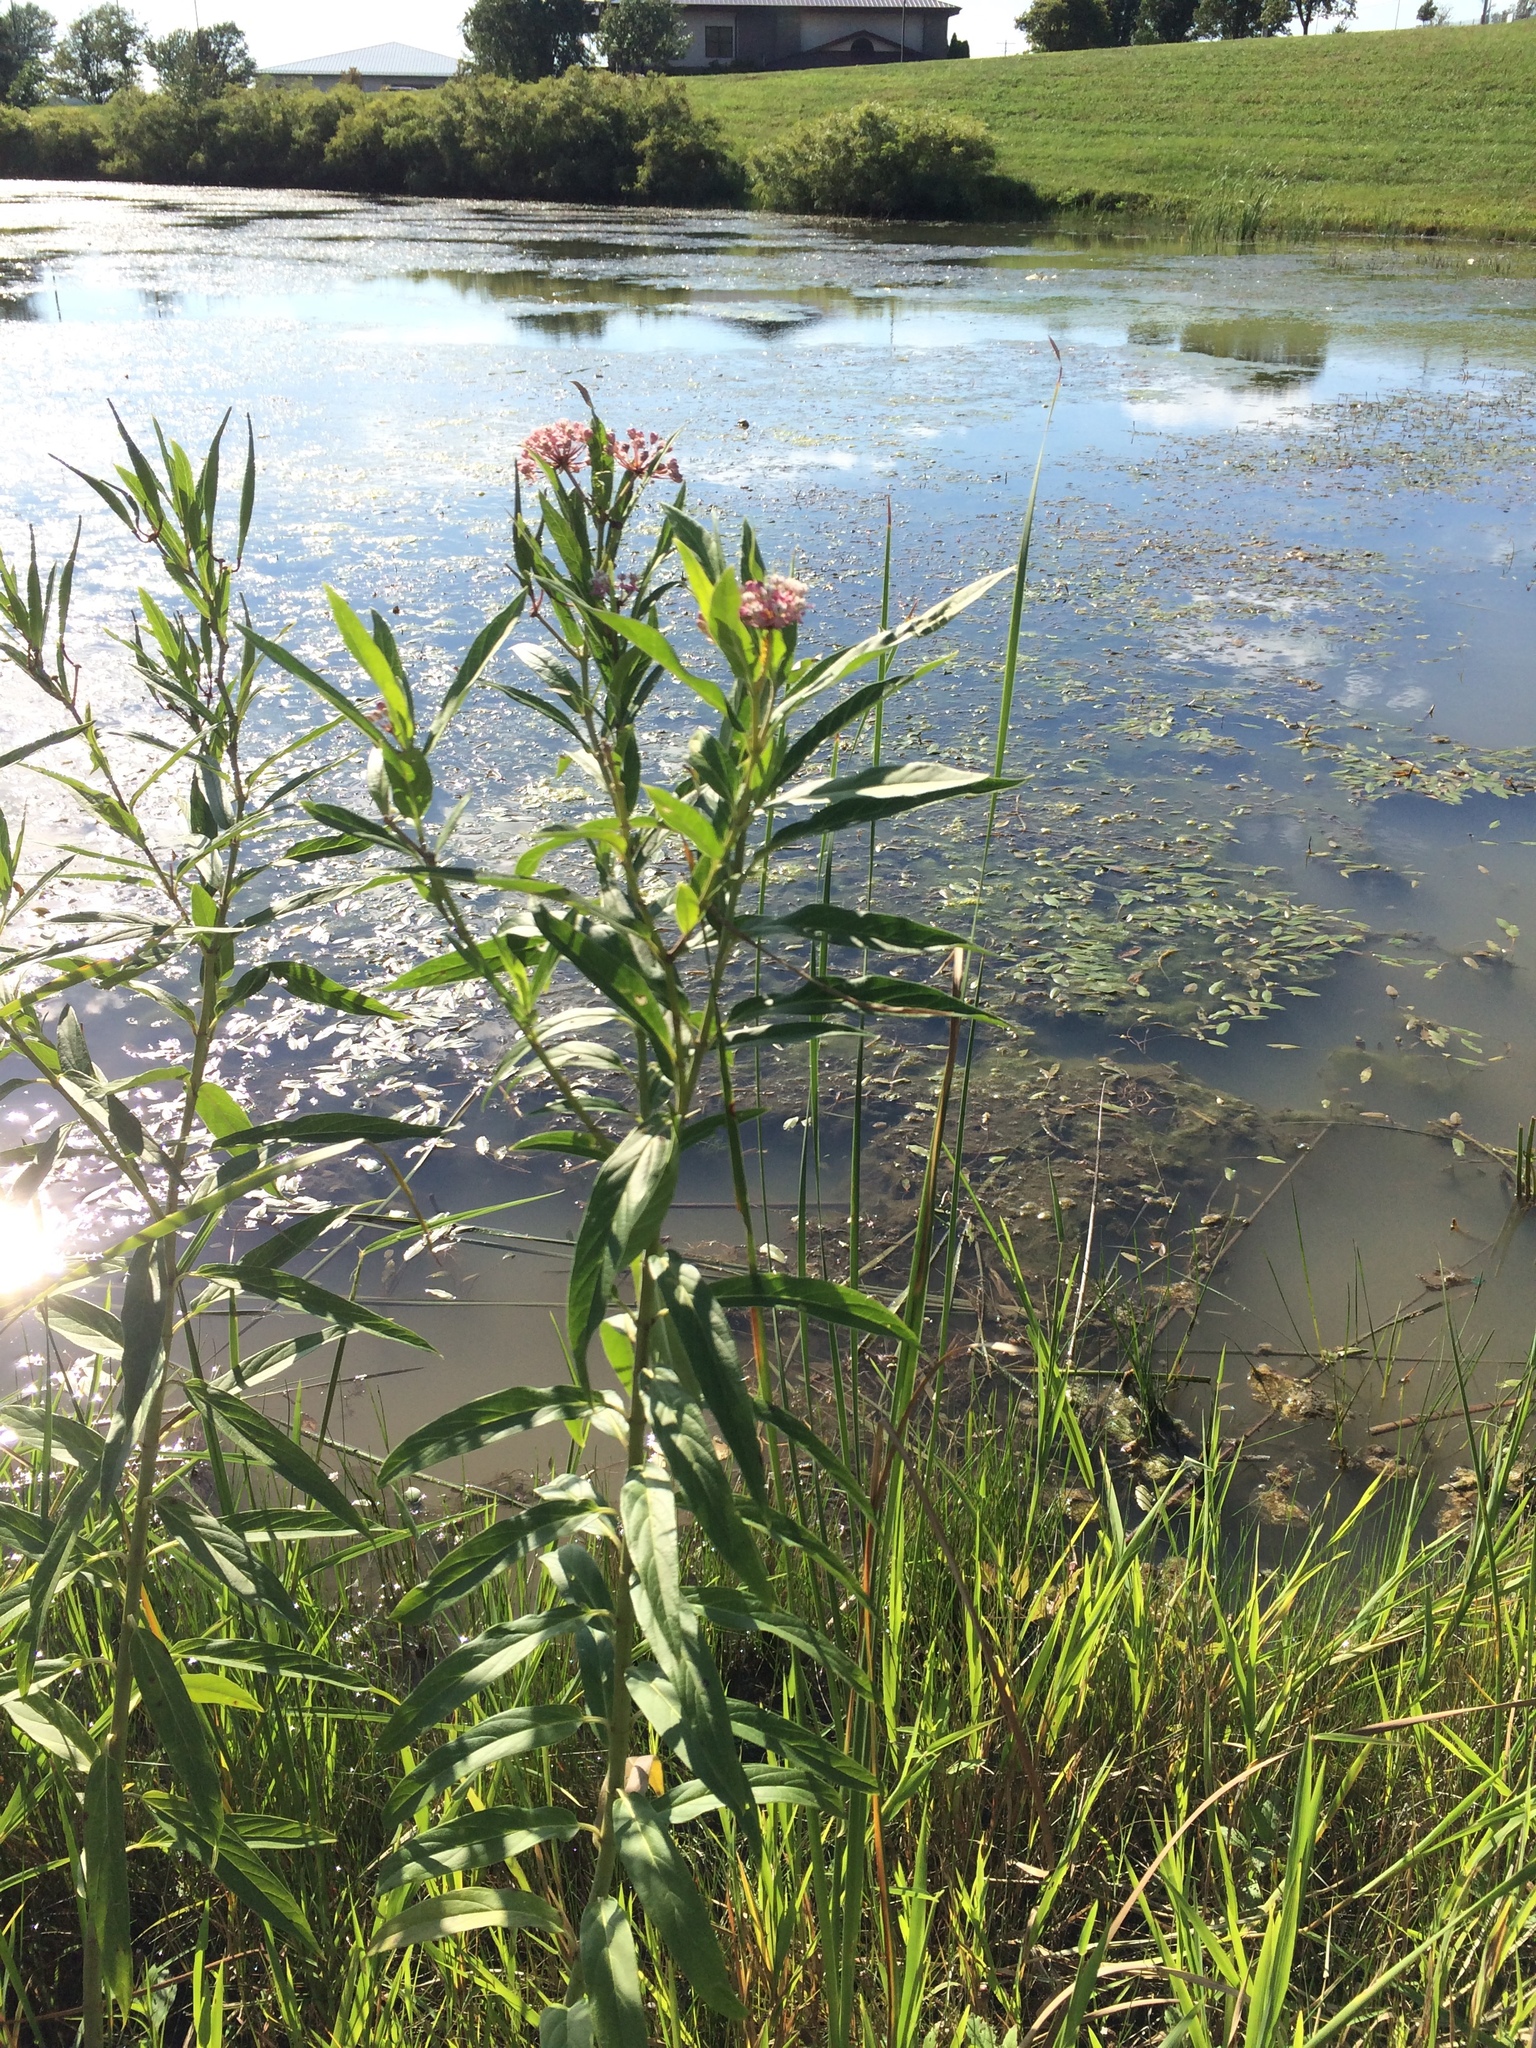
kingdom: Plantae
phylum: Tracheophyta
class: Magnoliopsida
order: Gentianales
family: Apocynaceae
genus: Asclepias
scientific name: Asclepias incarnata
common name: Swamp milkweed
